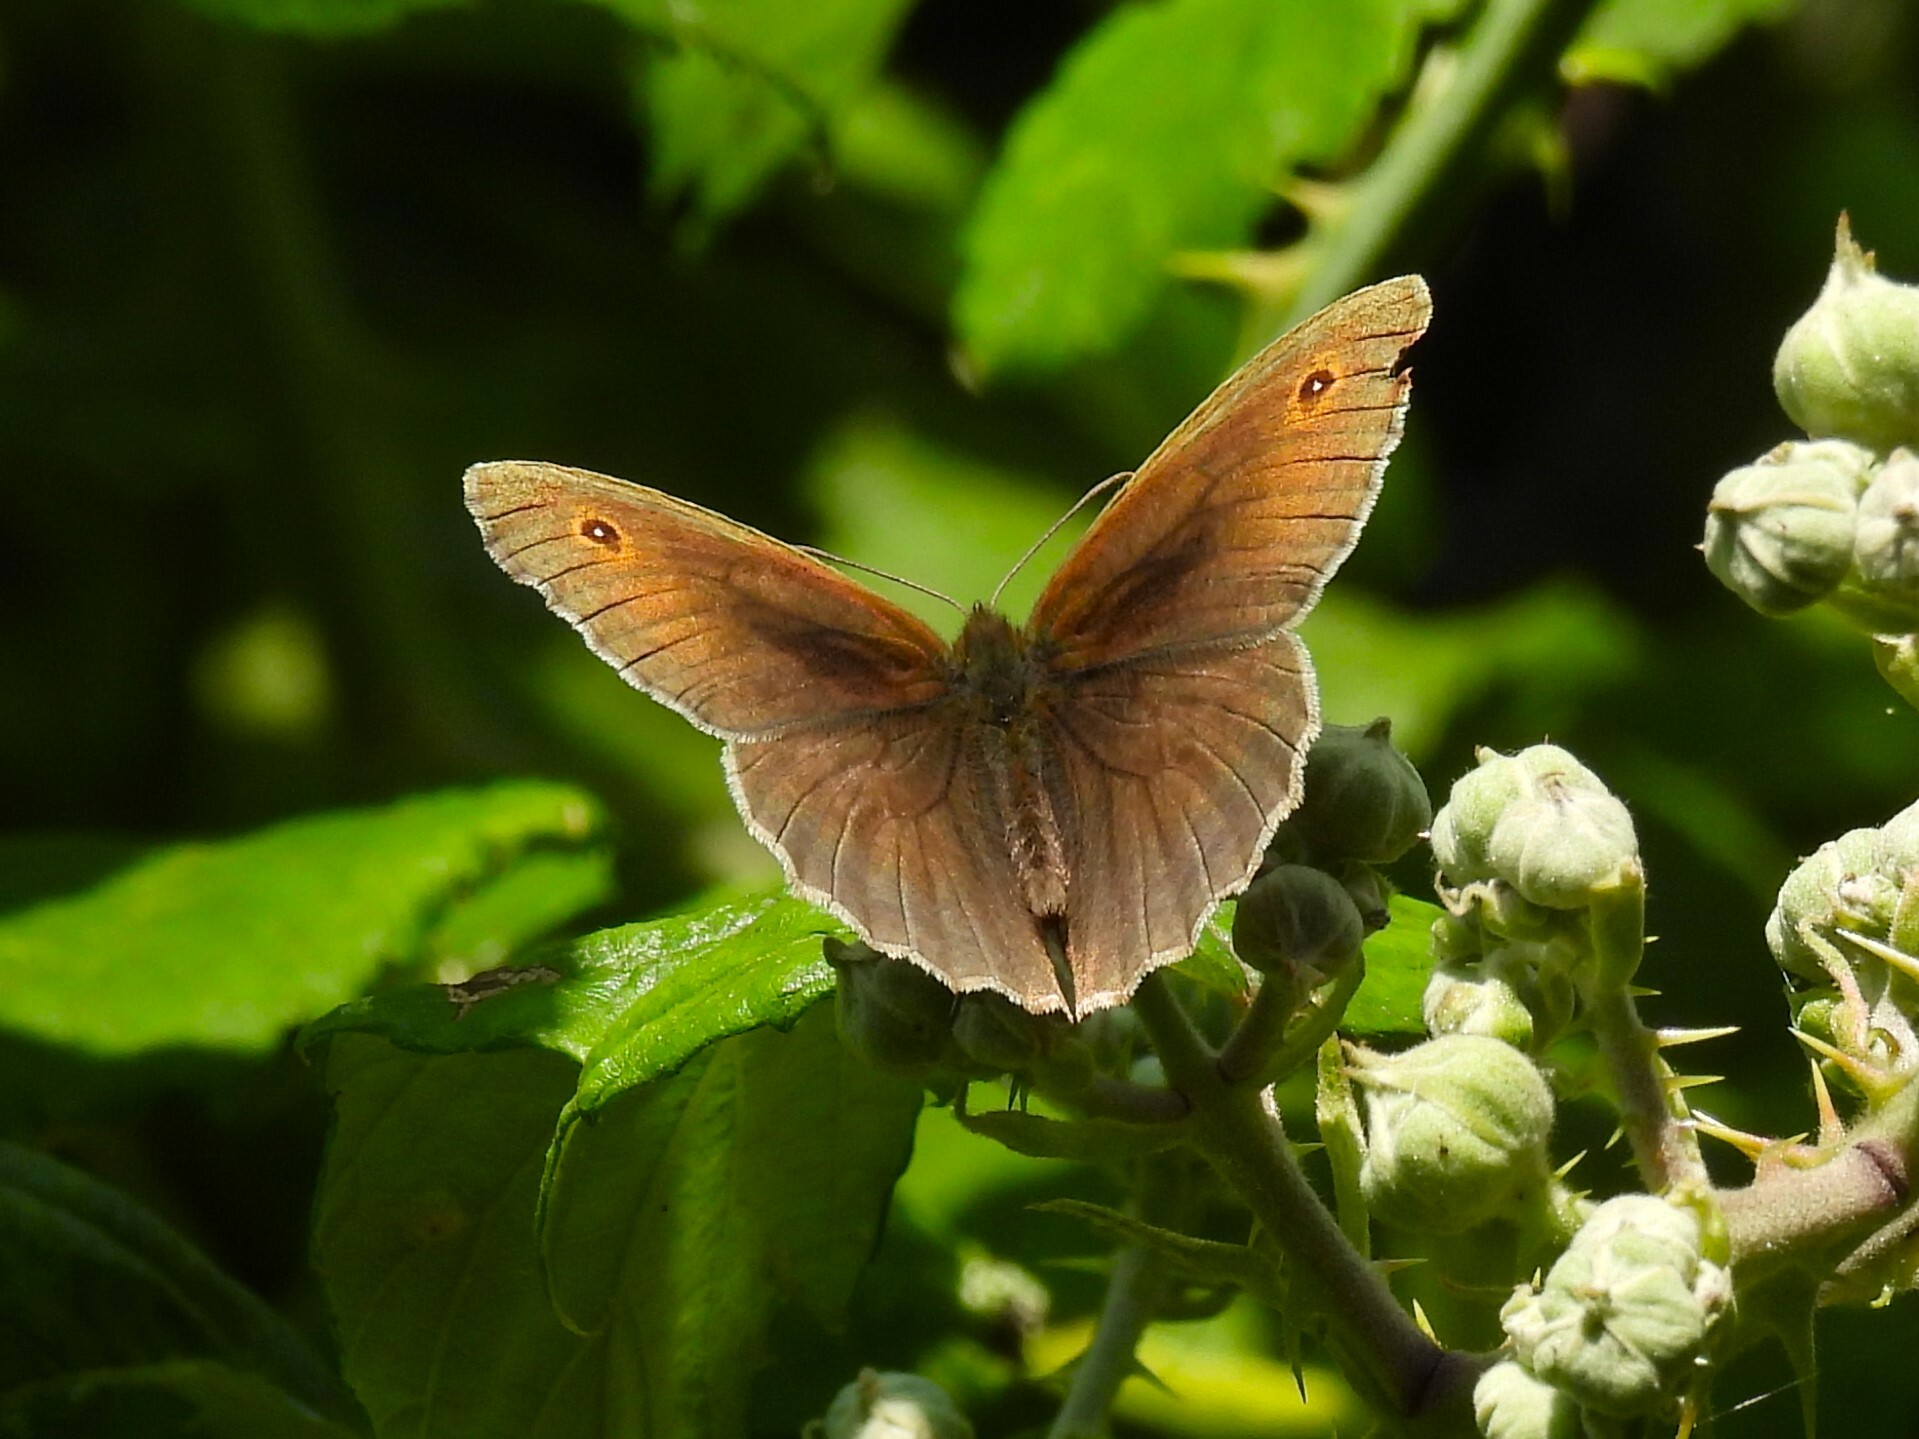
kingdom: Animalia
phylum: Arthropoda
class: Insecta
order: Lepidoptera
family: Nymphalidae
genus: Maniola
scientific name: Maniola jurtina
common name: Meadow brown
